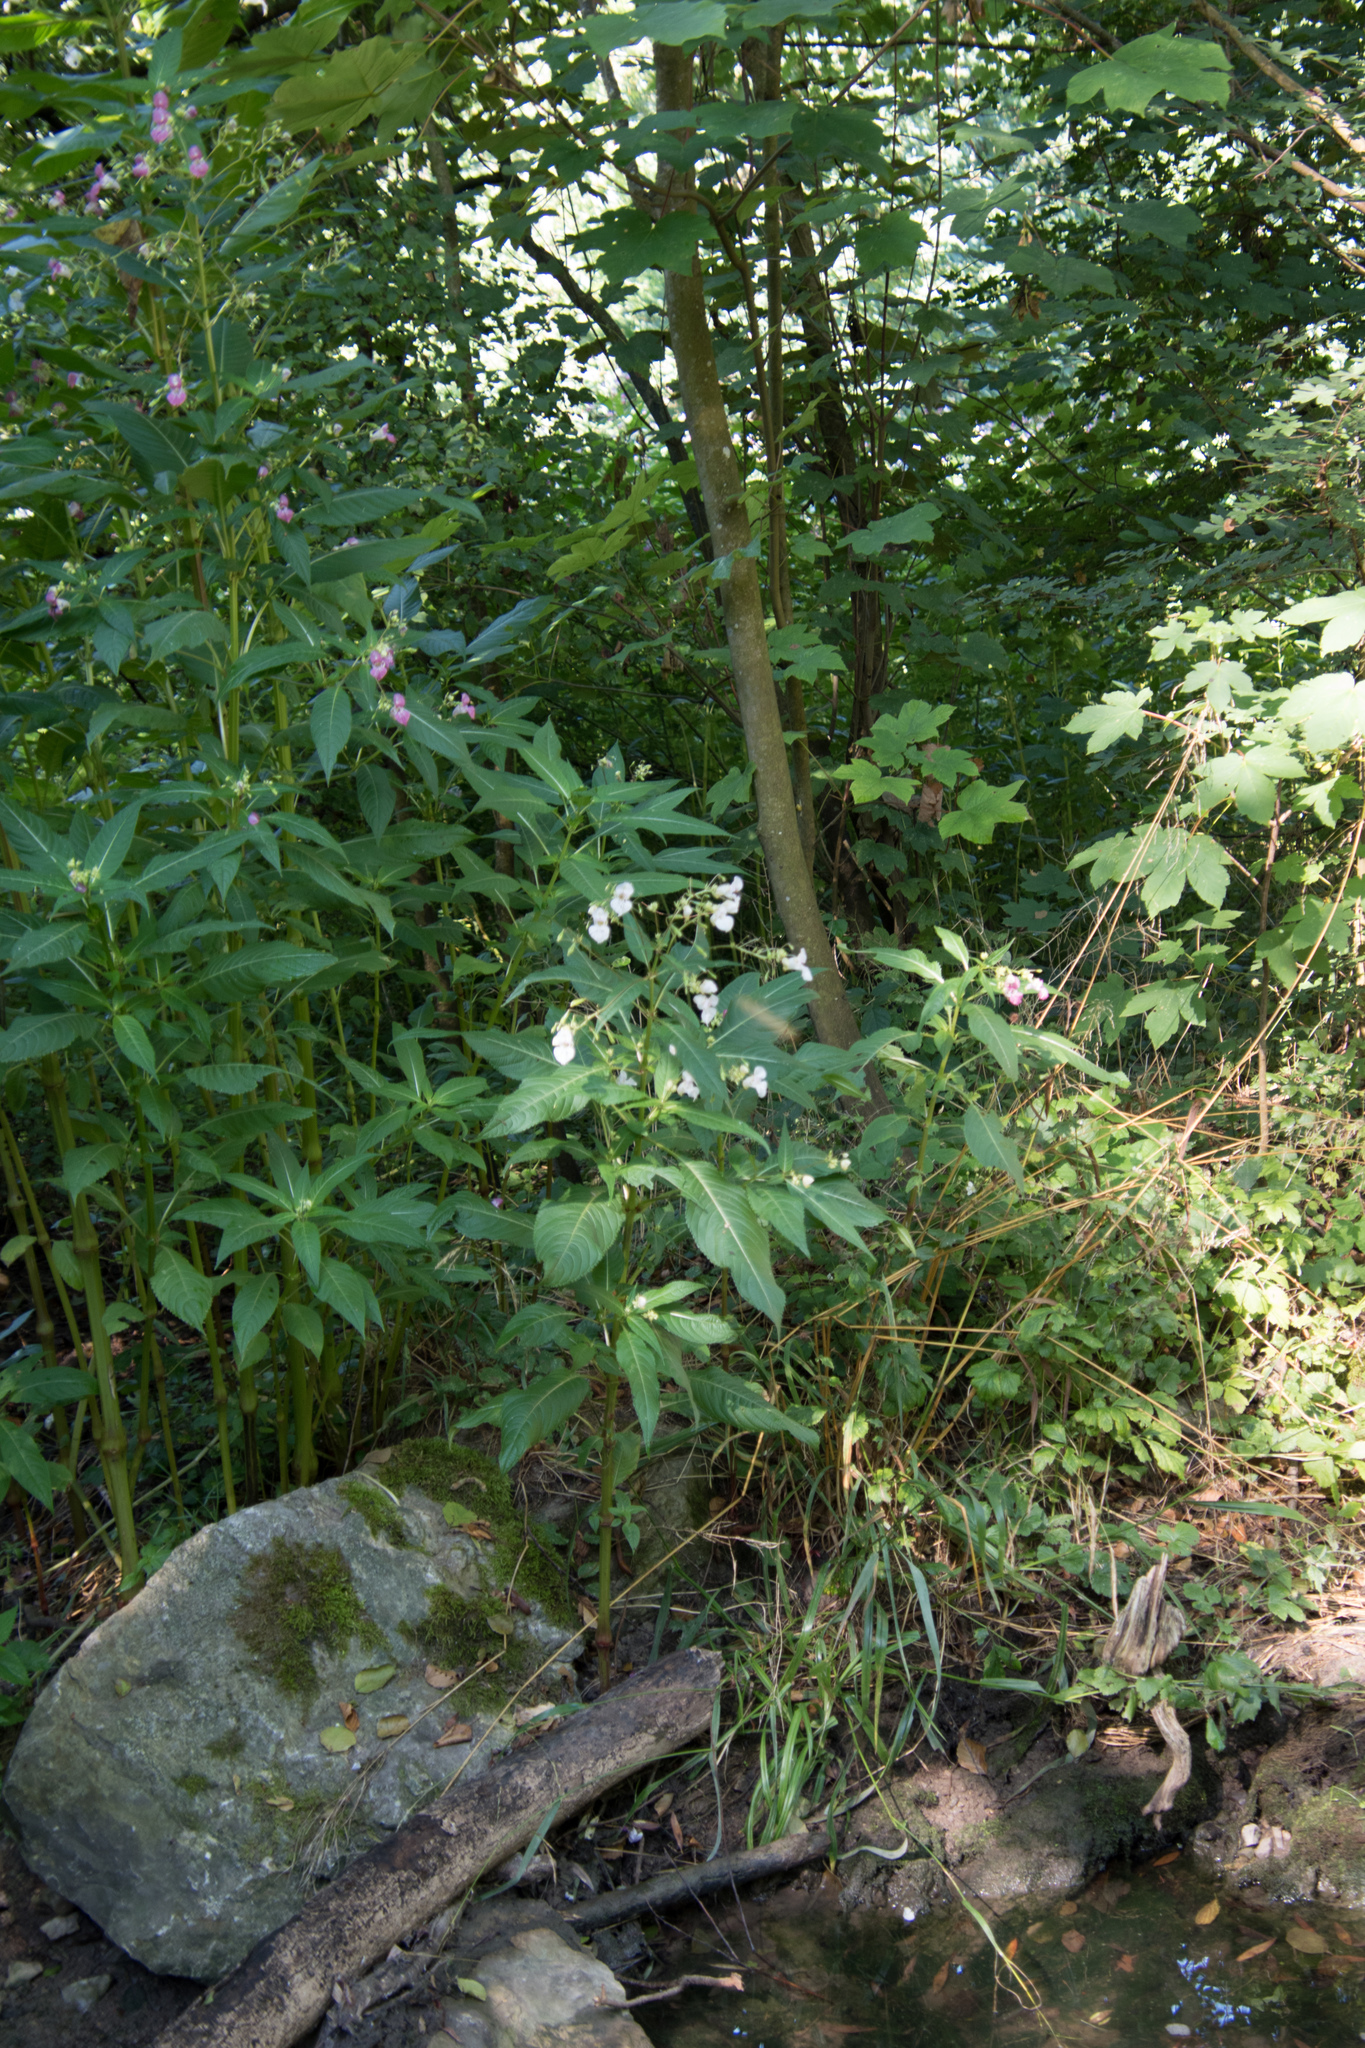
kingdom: Plantae
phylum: Tracheophyta
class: Magnoliopsida
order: Ericales
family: Balsaminaceae
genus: Impatiens
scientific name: Impatiens glandulifera
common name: Himalayan balsam
